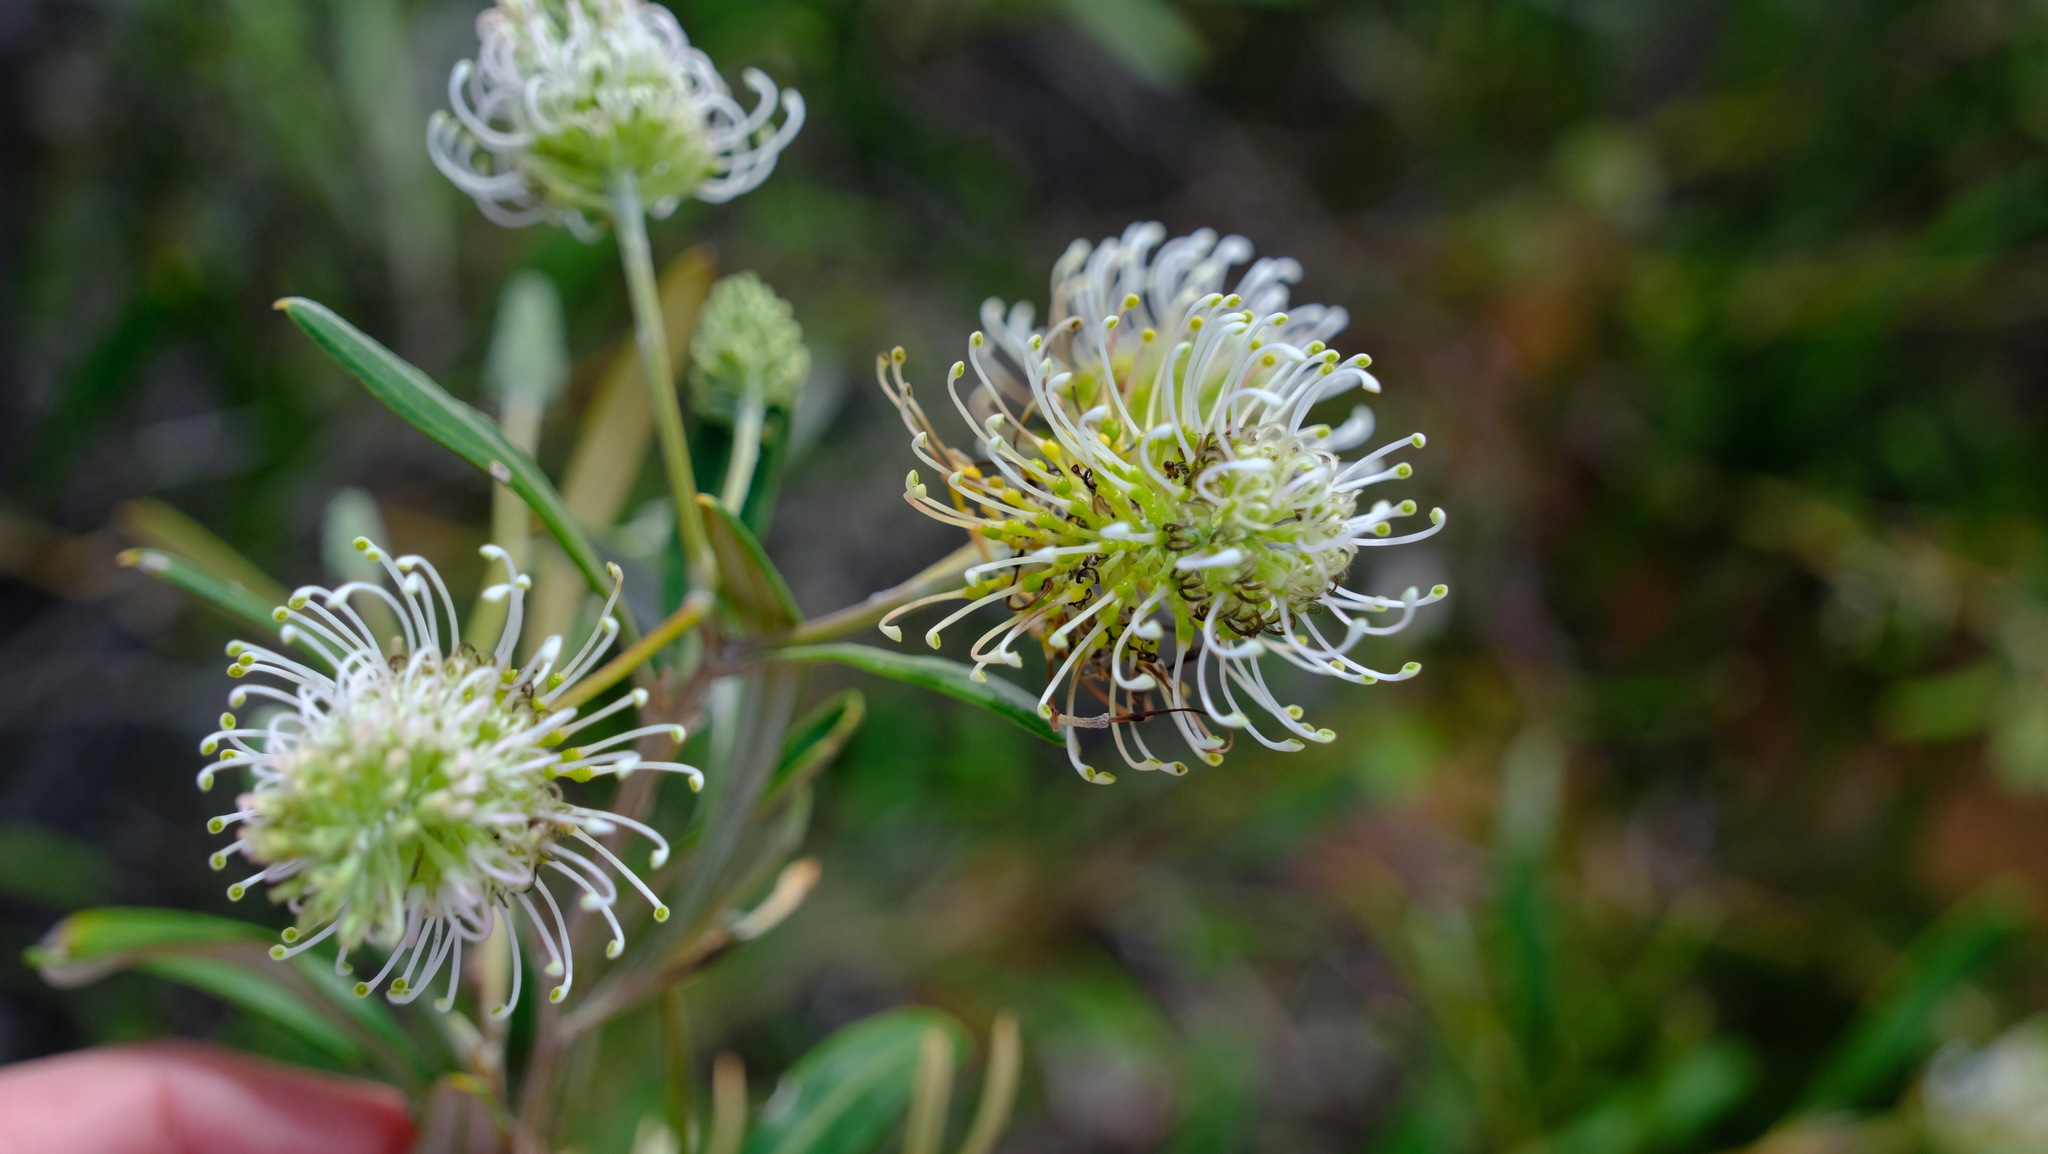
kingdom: Plantae
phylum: Tracheophyta
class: Magnoliopsida
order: Proteales
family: Proteaceae
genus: Grevillea
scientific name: Grevillea commutata
